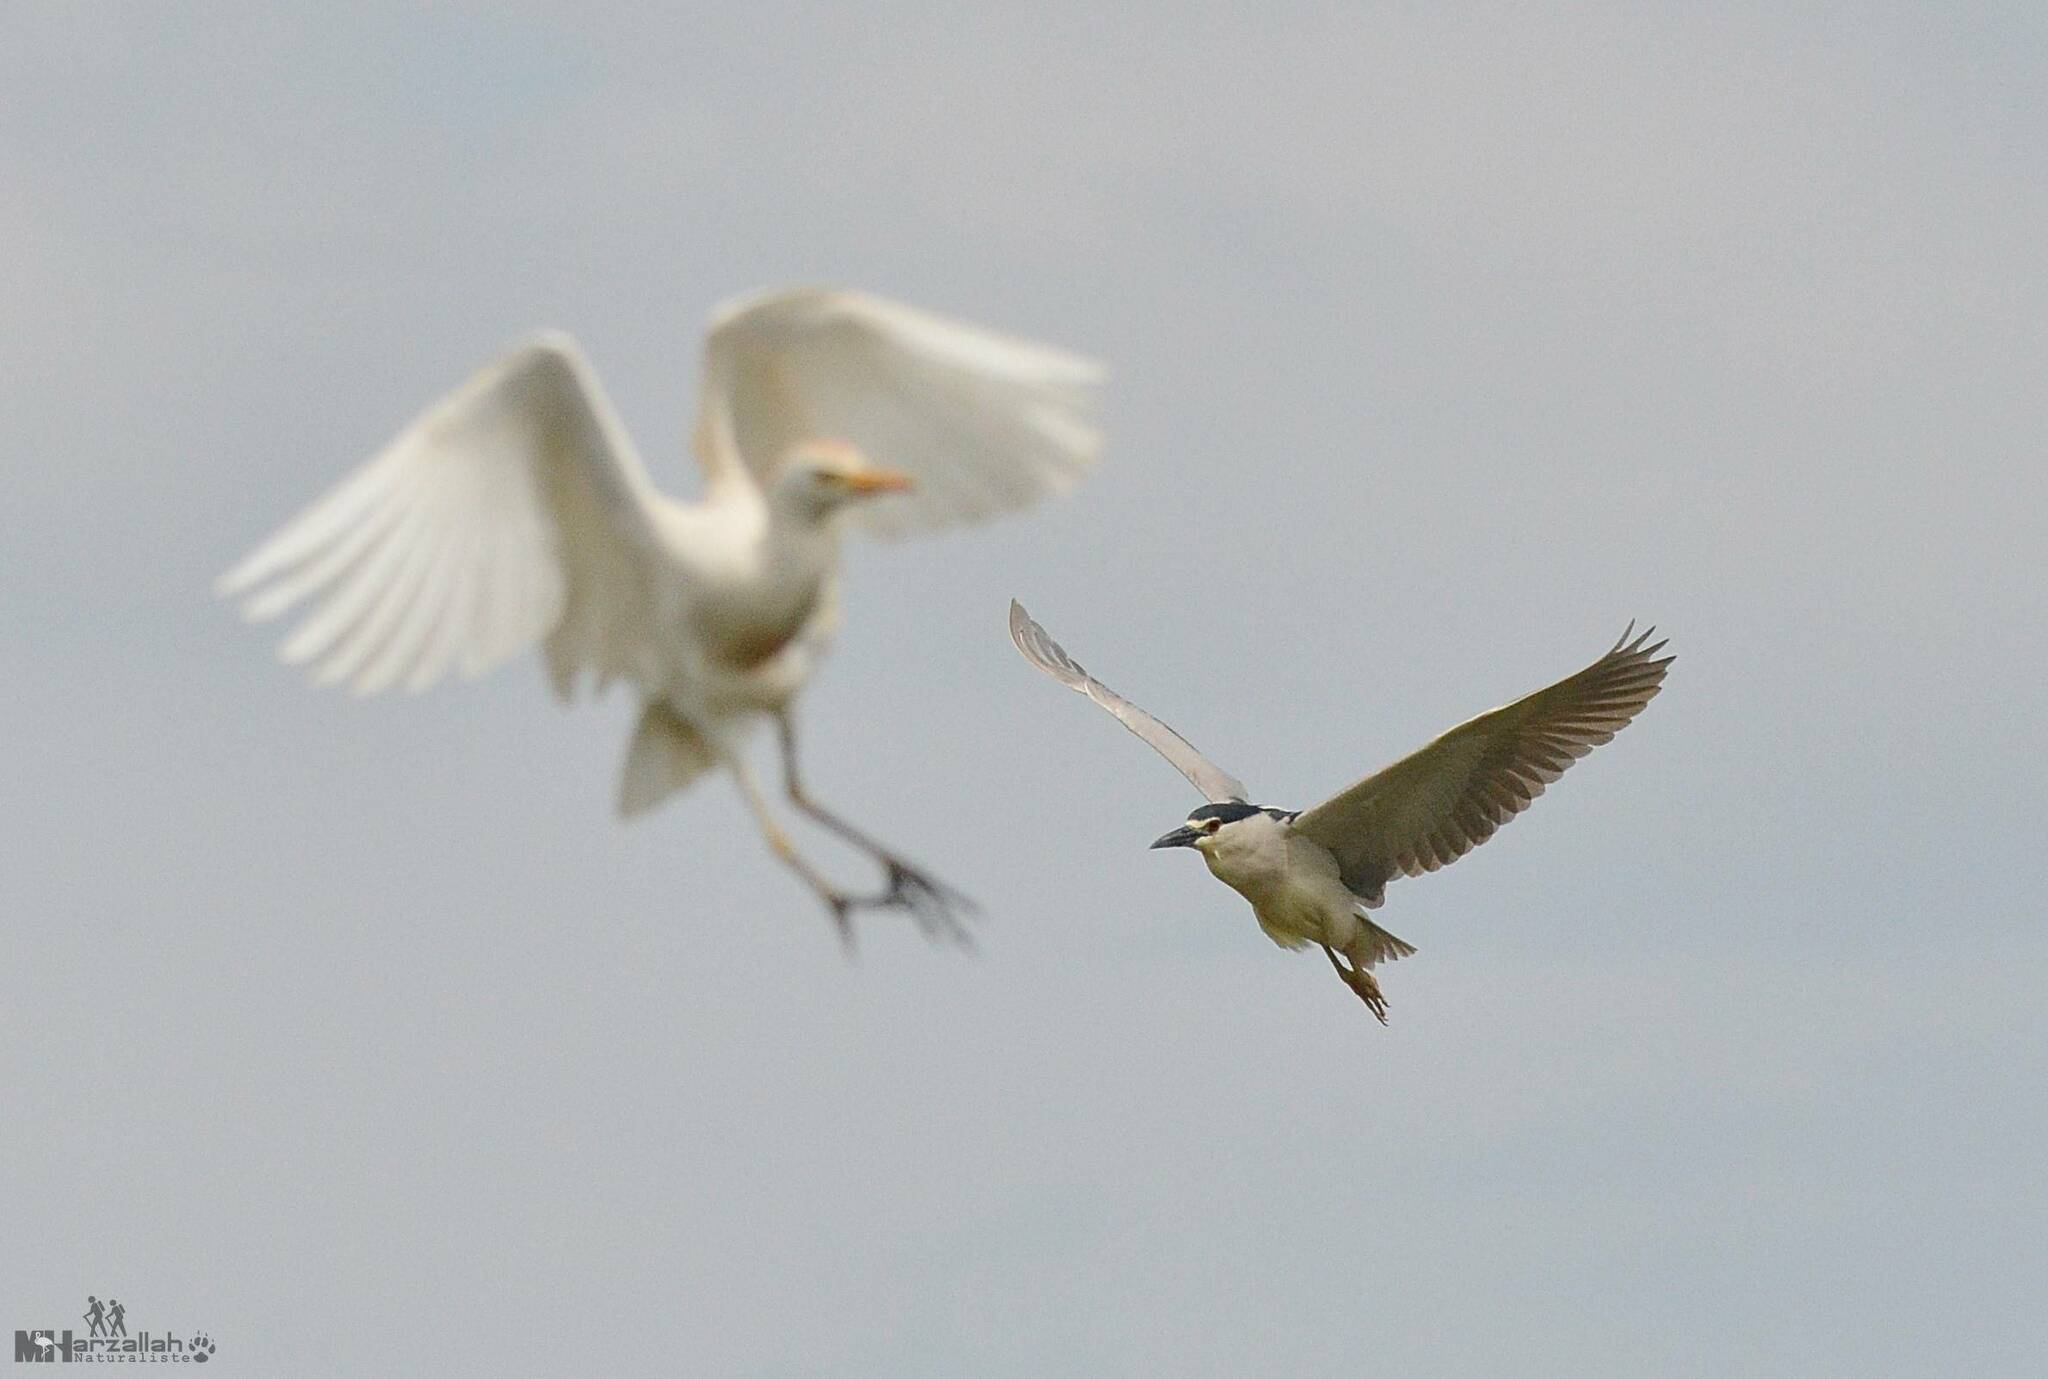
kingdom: Animalia
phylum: Chordata
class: Aves
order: Pelecaniformes
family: Ardeidae
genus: Nycticorax
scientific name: Nycticorax nycticorax
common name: Black-crowned night heron
